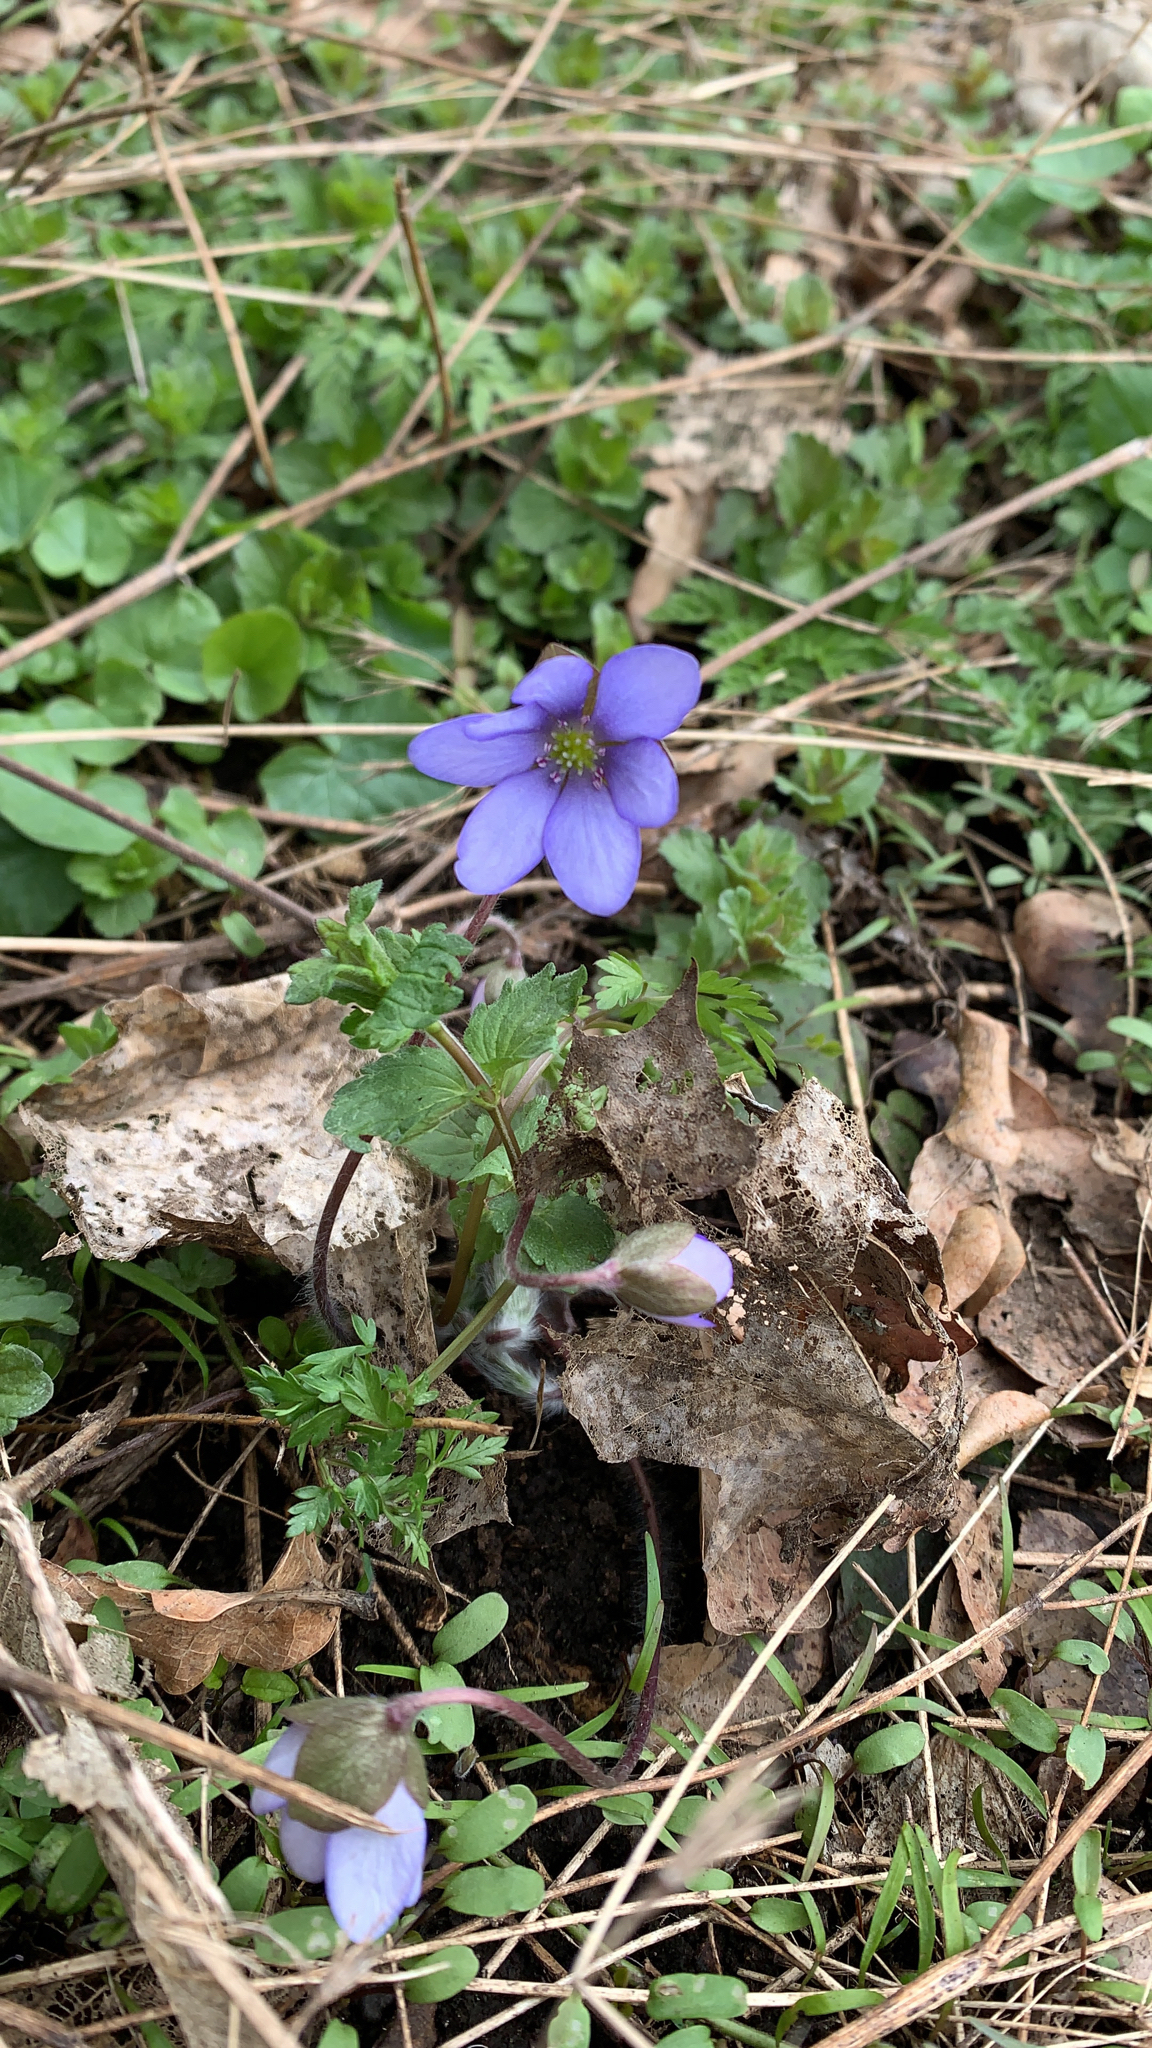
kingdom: Plantae
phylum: Tracheophyta
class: Magnoliopsida
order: Ranunculales
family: Ranunculaceae
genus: Hepatica
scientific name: Hepatica nobilis
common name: Liverleaf
